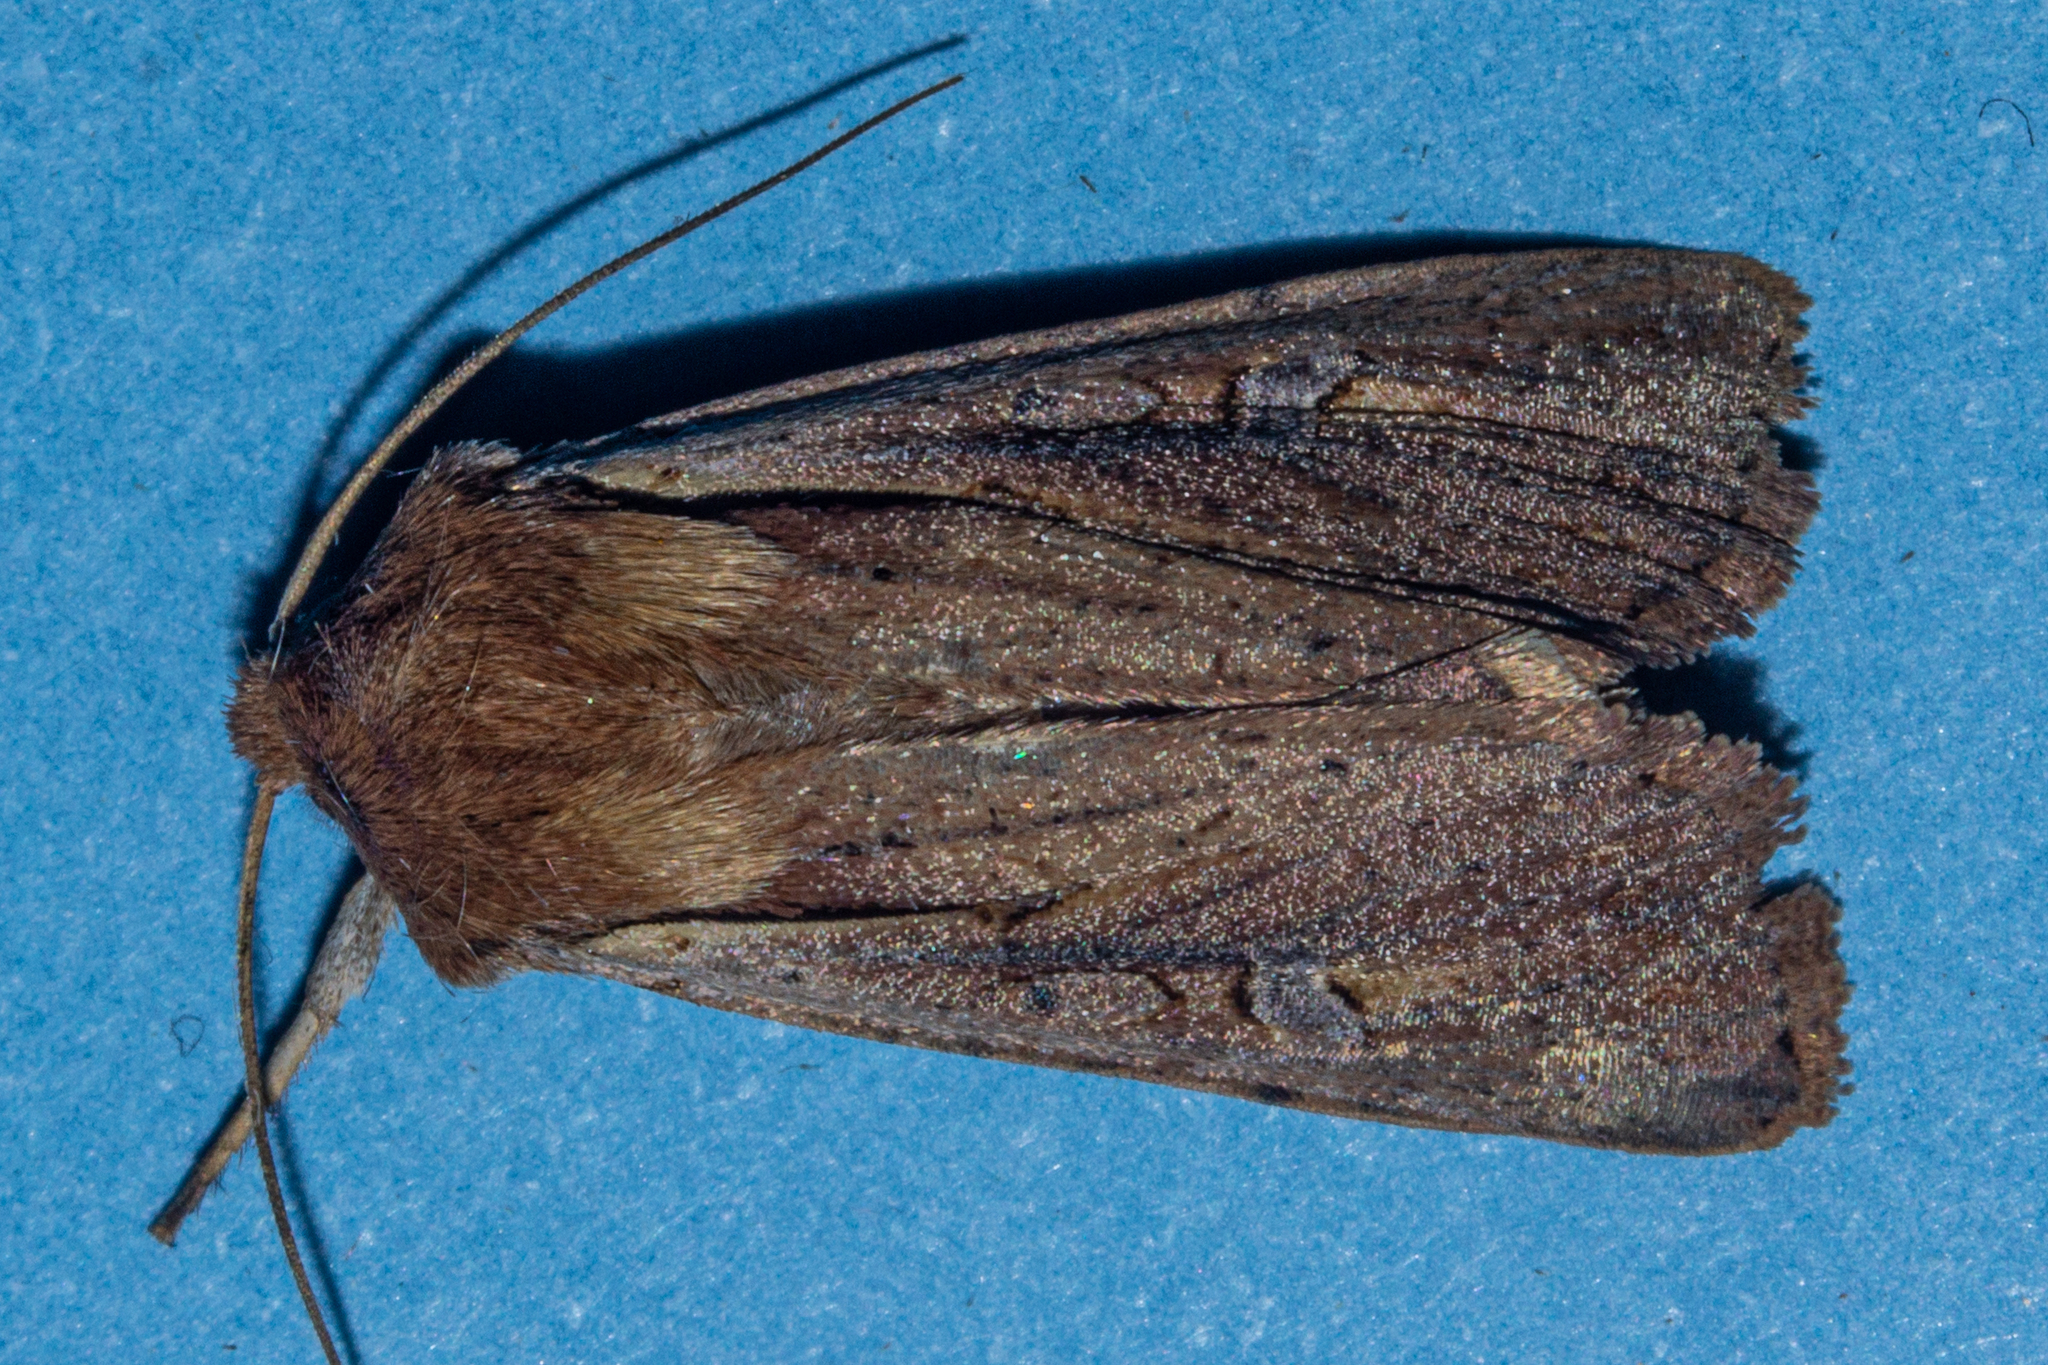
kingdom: Animalia
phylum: Arthropoda
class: Insecta
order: Lepidoptera
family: Noctuidae
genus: Ichneutica
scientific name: Ichneutica atristriga
